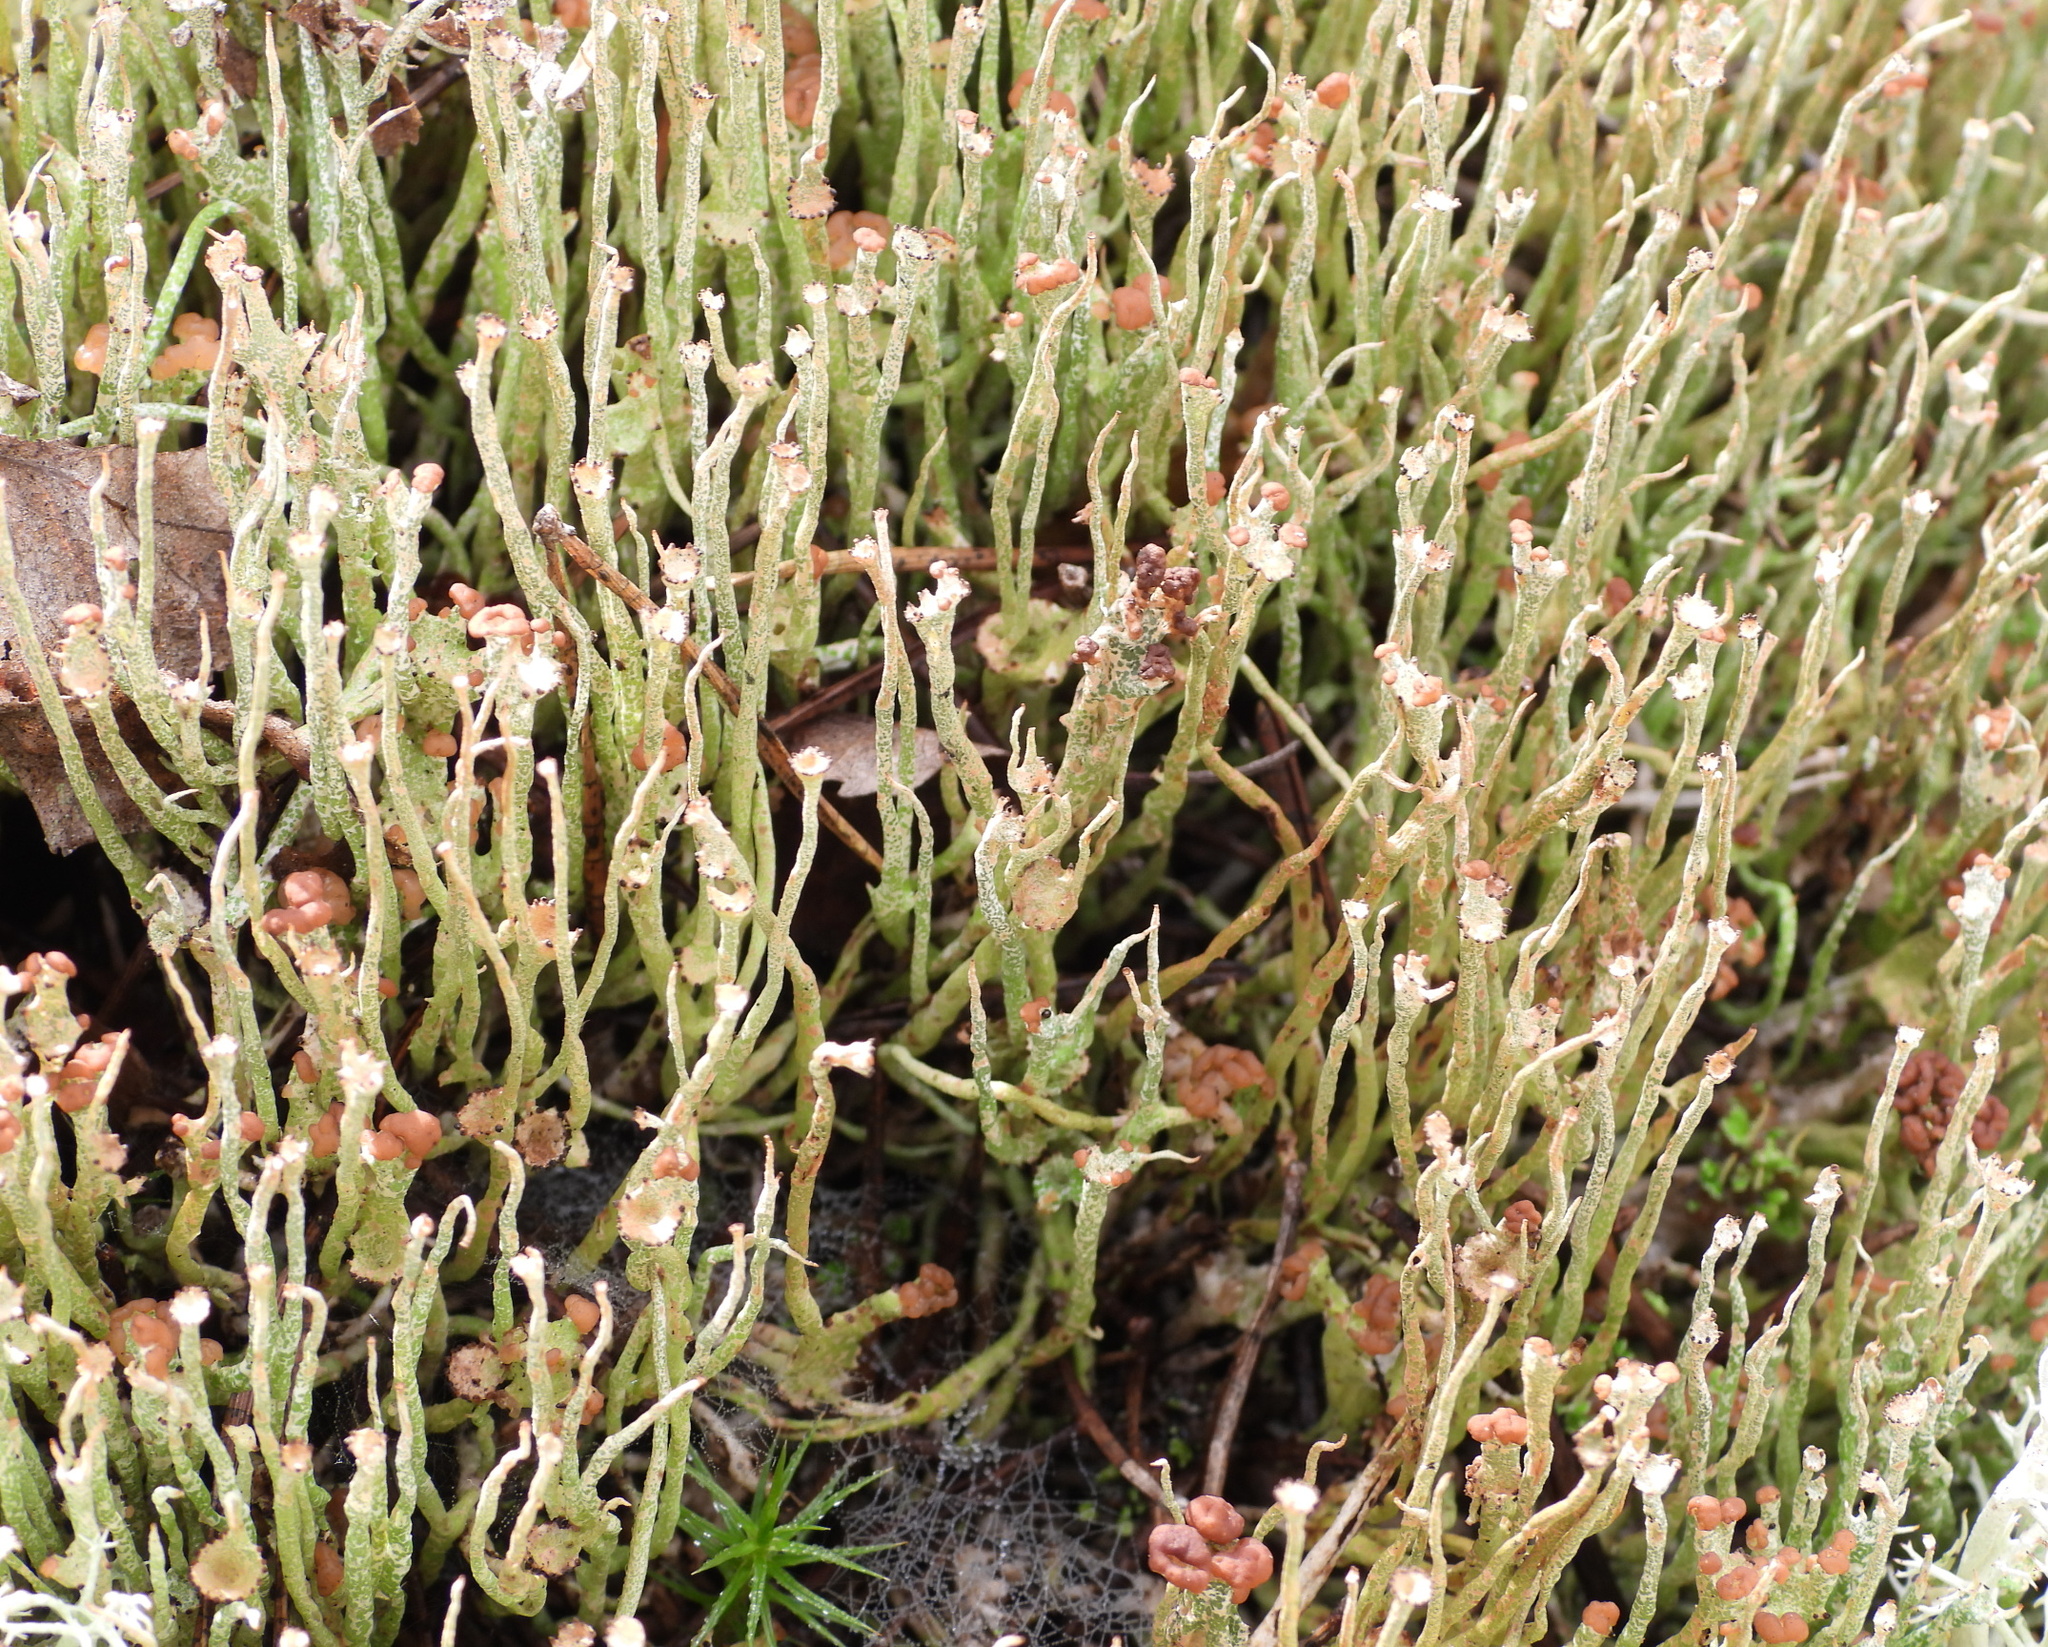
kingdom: Fungi
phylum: Ascomycota
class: Lecanoromycetes
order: Lecanorales
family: Cladoniaceae
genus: Cladonia
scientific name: Cladonia gracilis
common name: Smooth clad lichen
